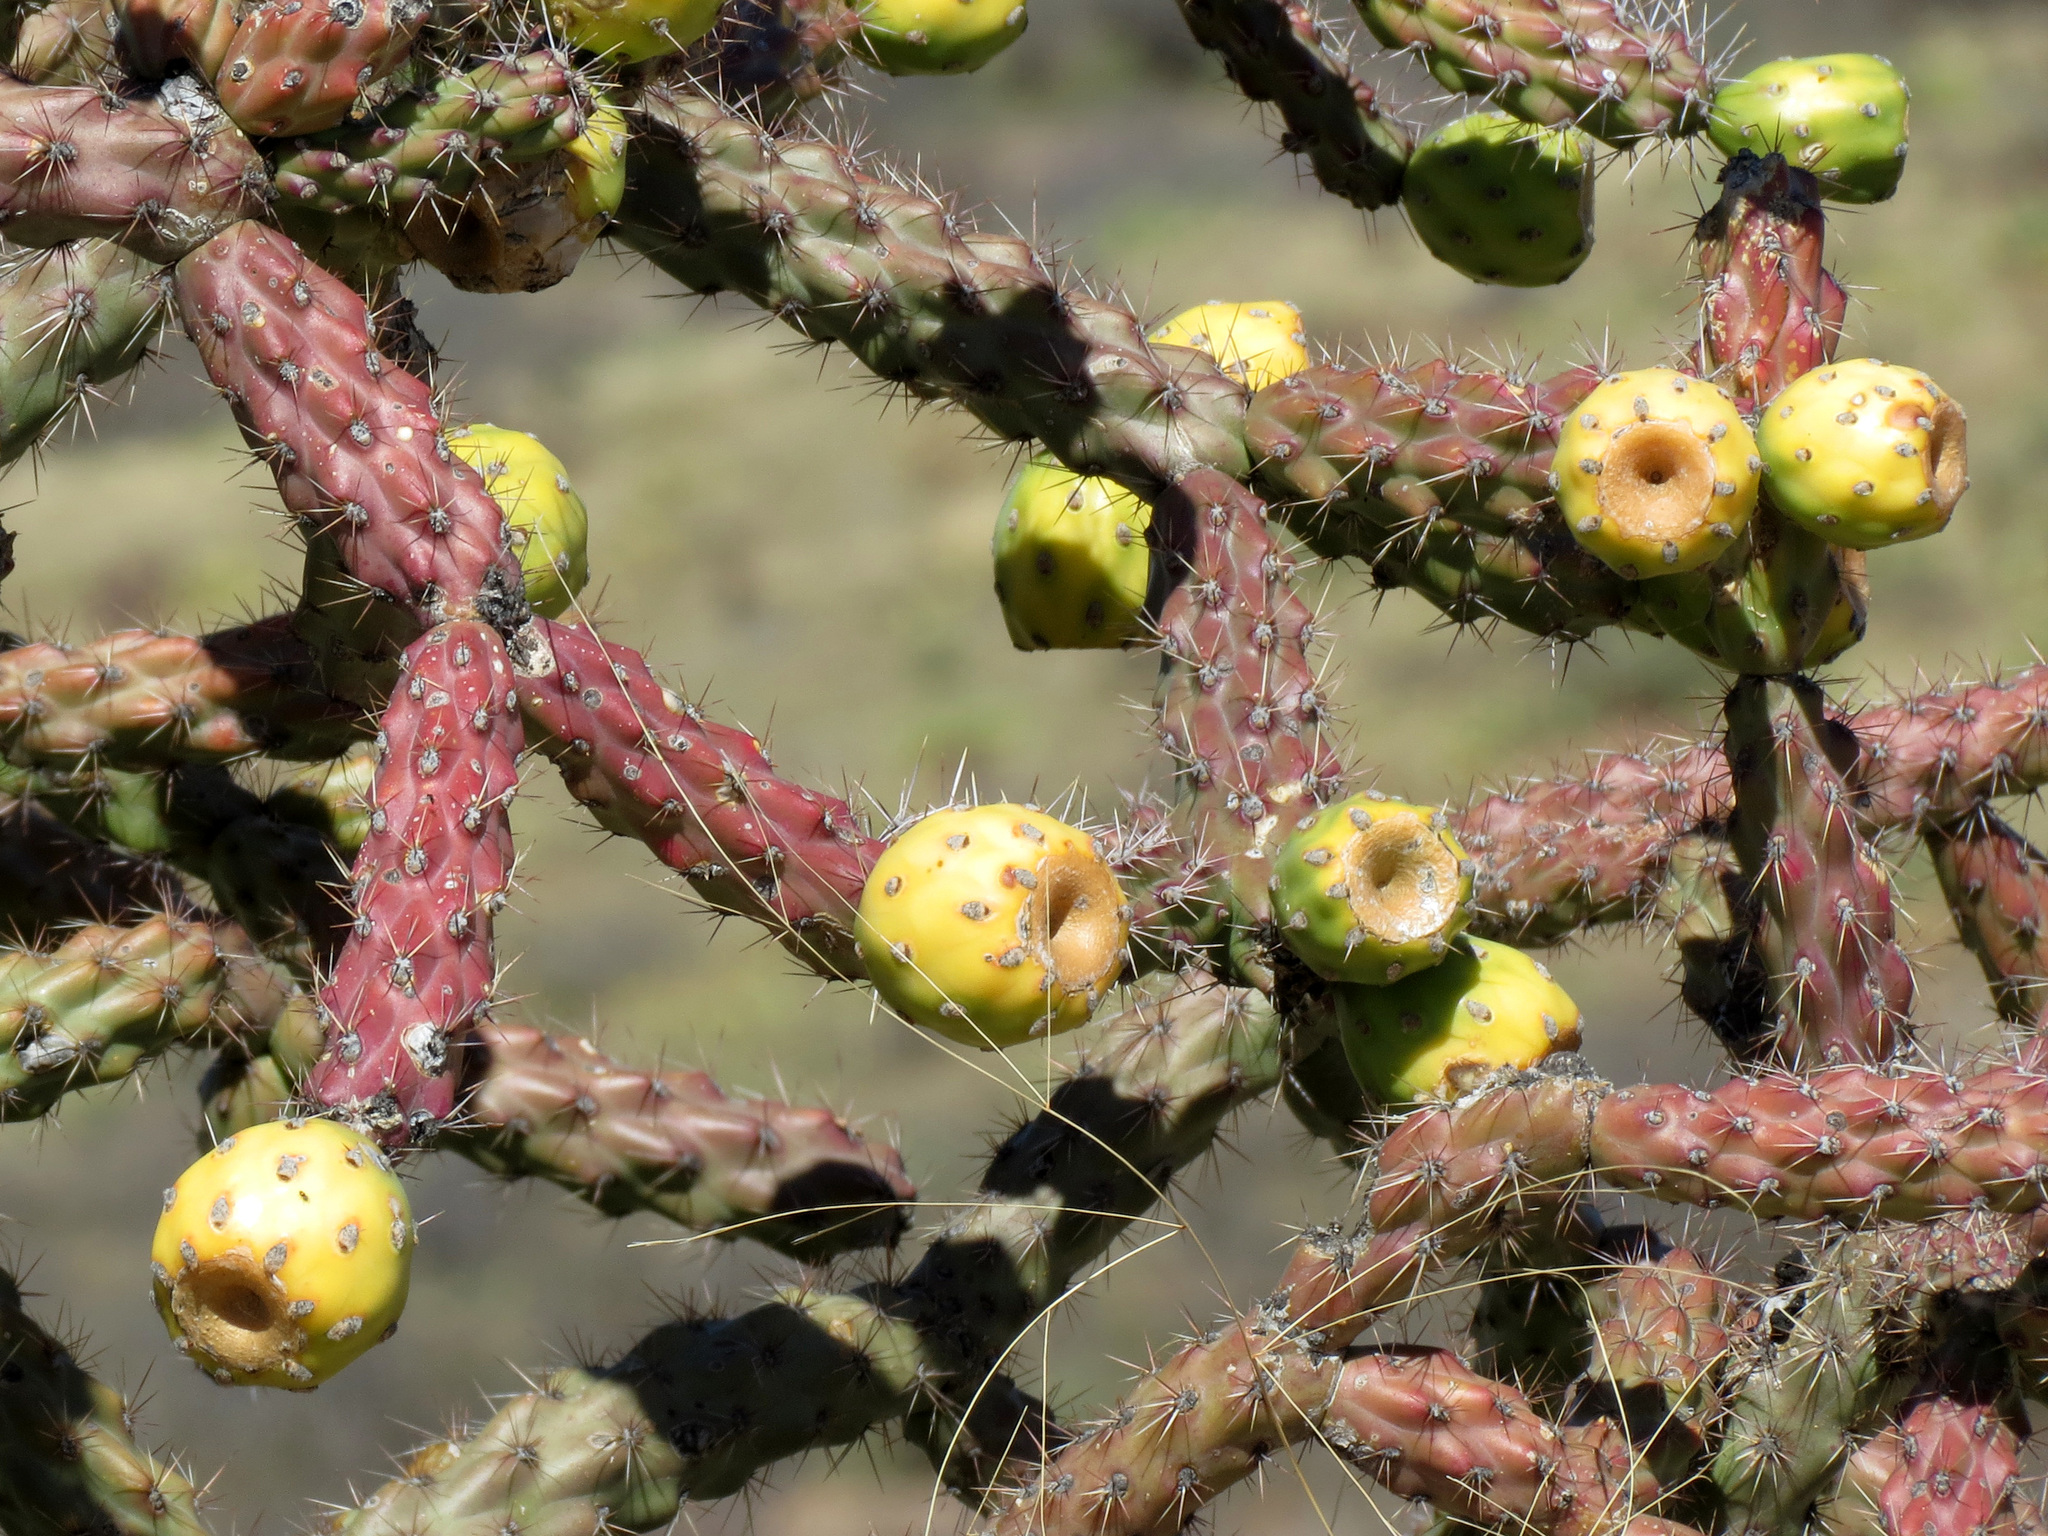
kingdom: Plantae
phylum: Tracheophyta
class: Magnoliopsida
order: Caryophyllales
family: Cactaceae
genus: Cylindropuntia
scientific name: Cylindropuntia thurberi
